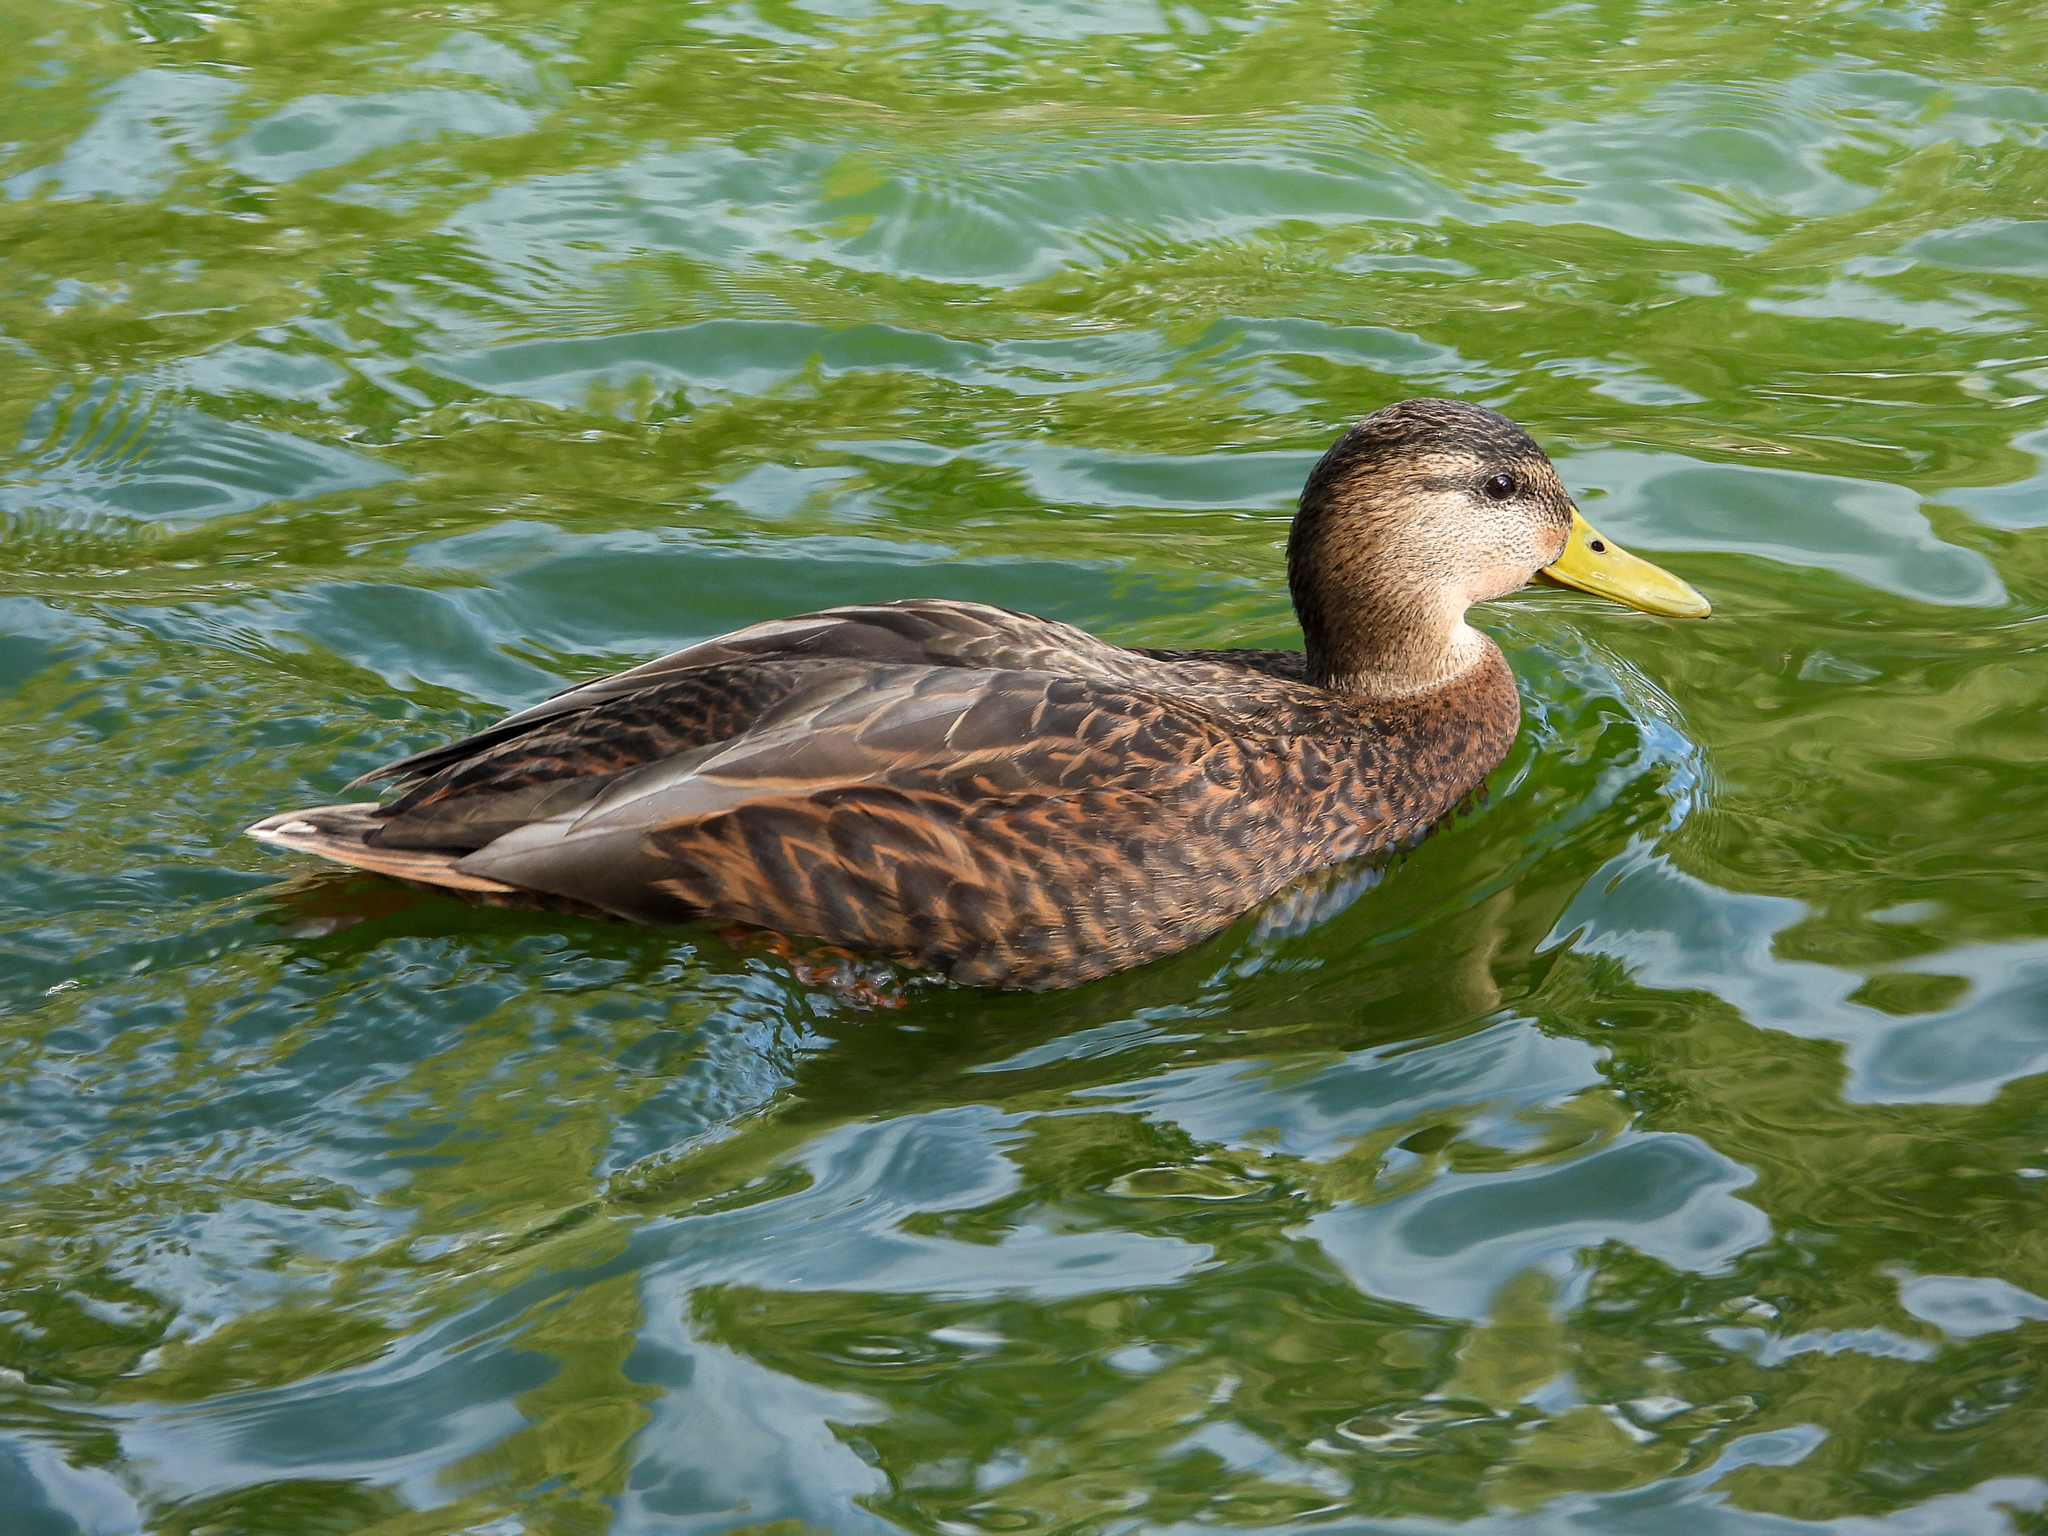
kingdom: Animalia
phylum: Chordata
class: Aves
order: Anseriformes
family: Anatidae
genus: Anas
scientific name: Anas diazi
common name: Mexican duck
